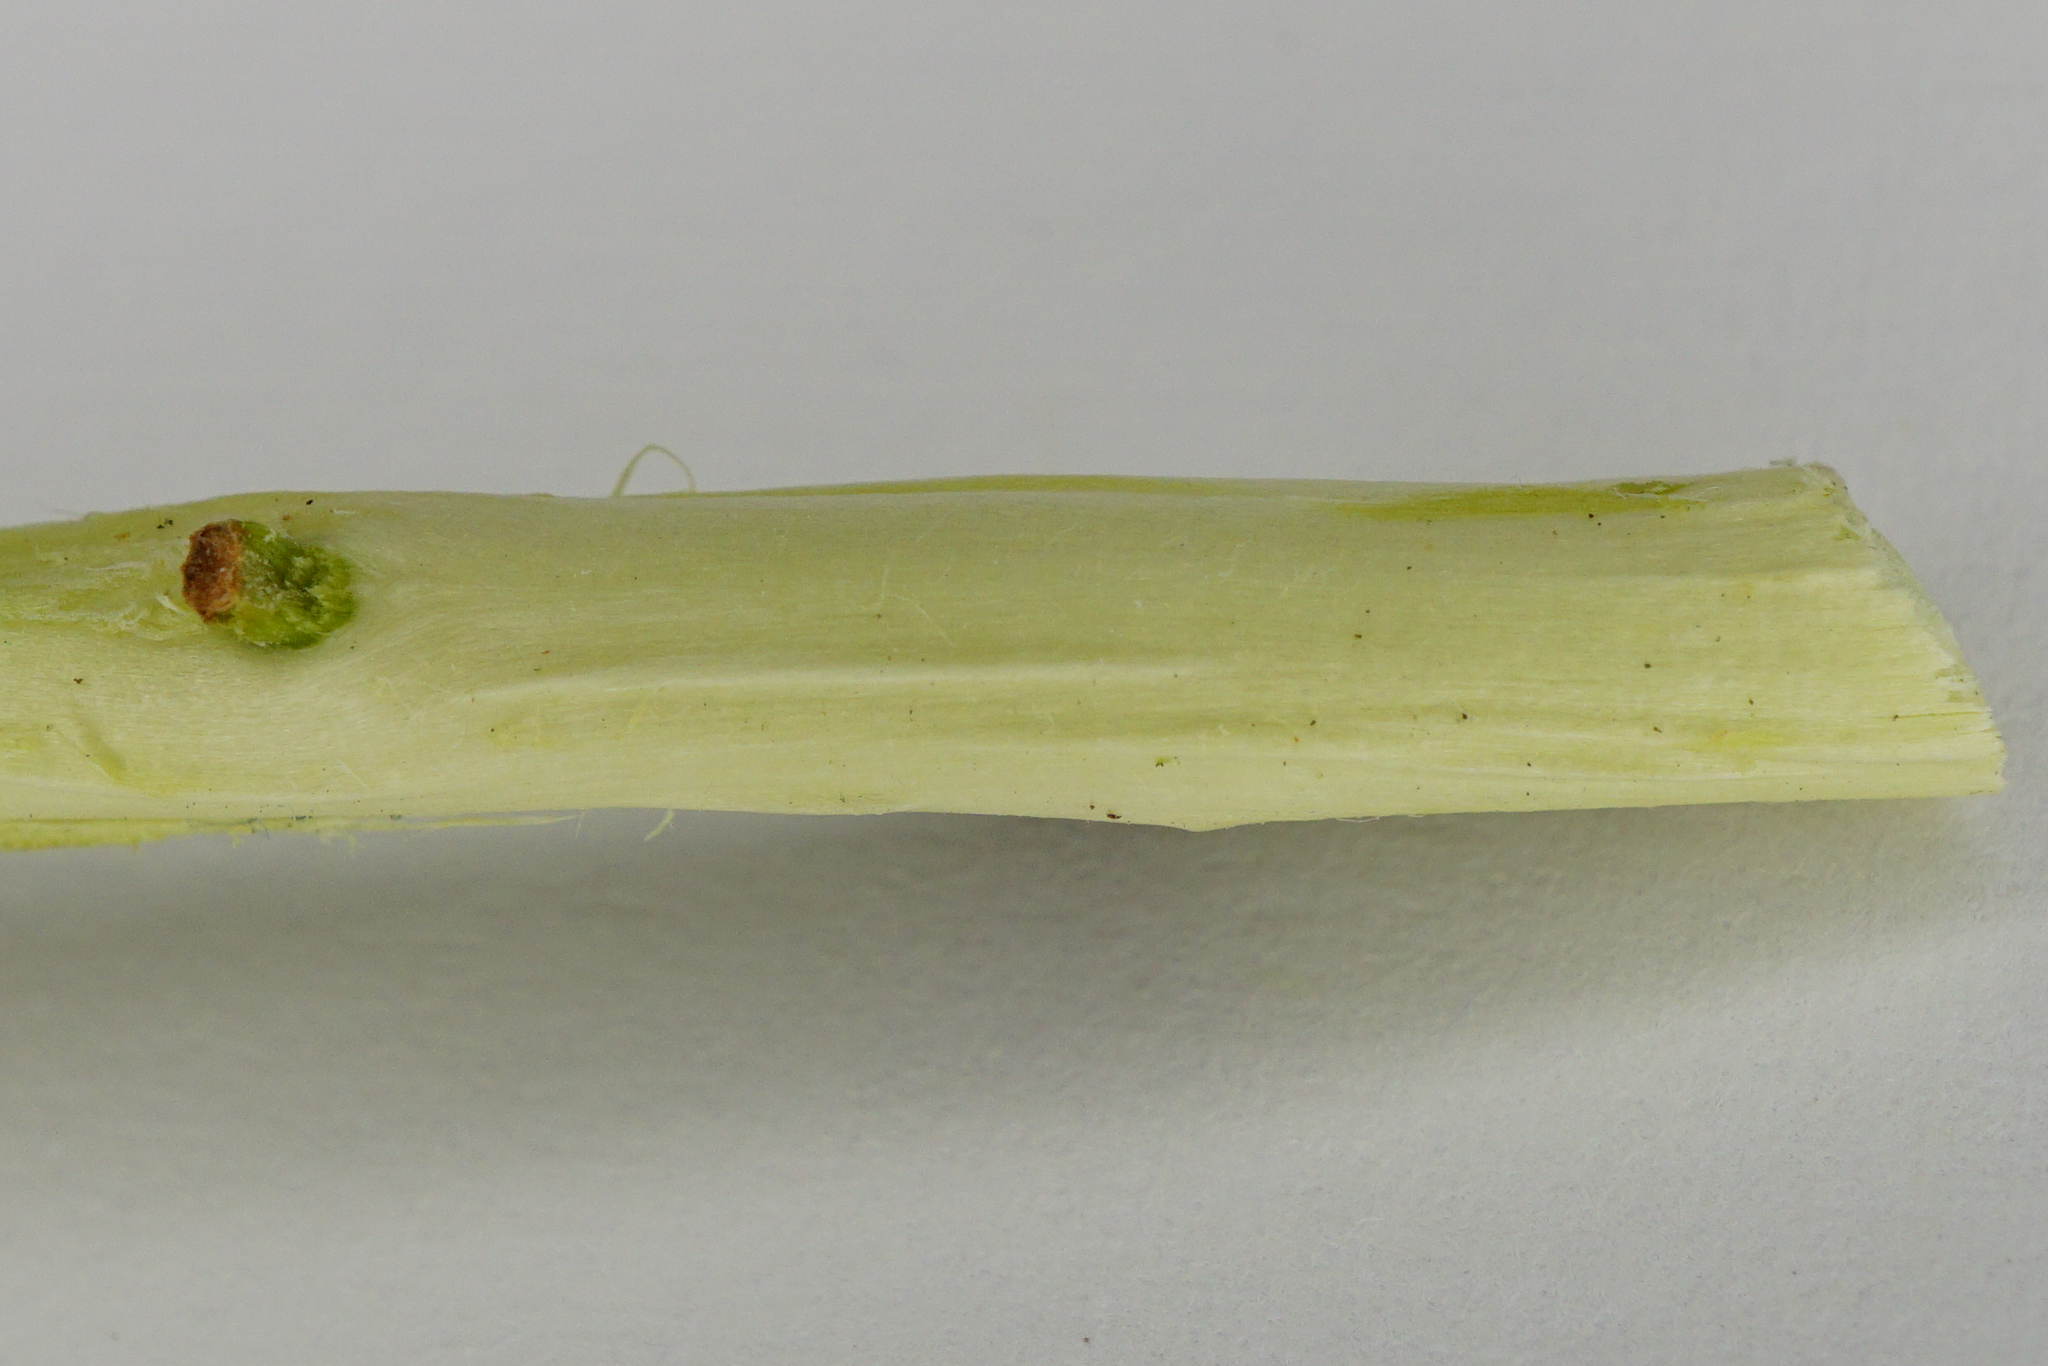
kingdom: Plantae
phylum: Tracheophyta
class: Magnoliopsida
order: Malpighiales
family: Salicaceae
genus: Salix
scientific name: Salix cinerea
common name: Common sallow
